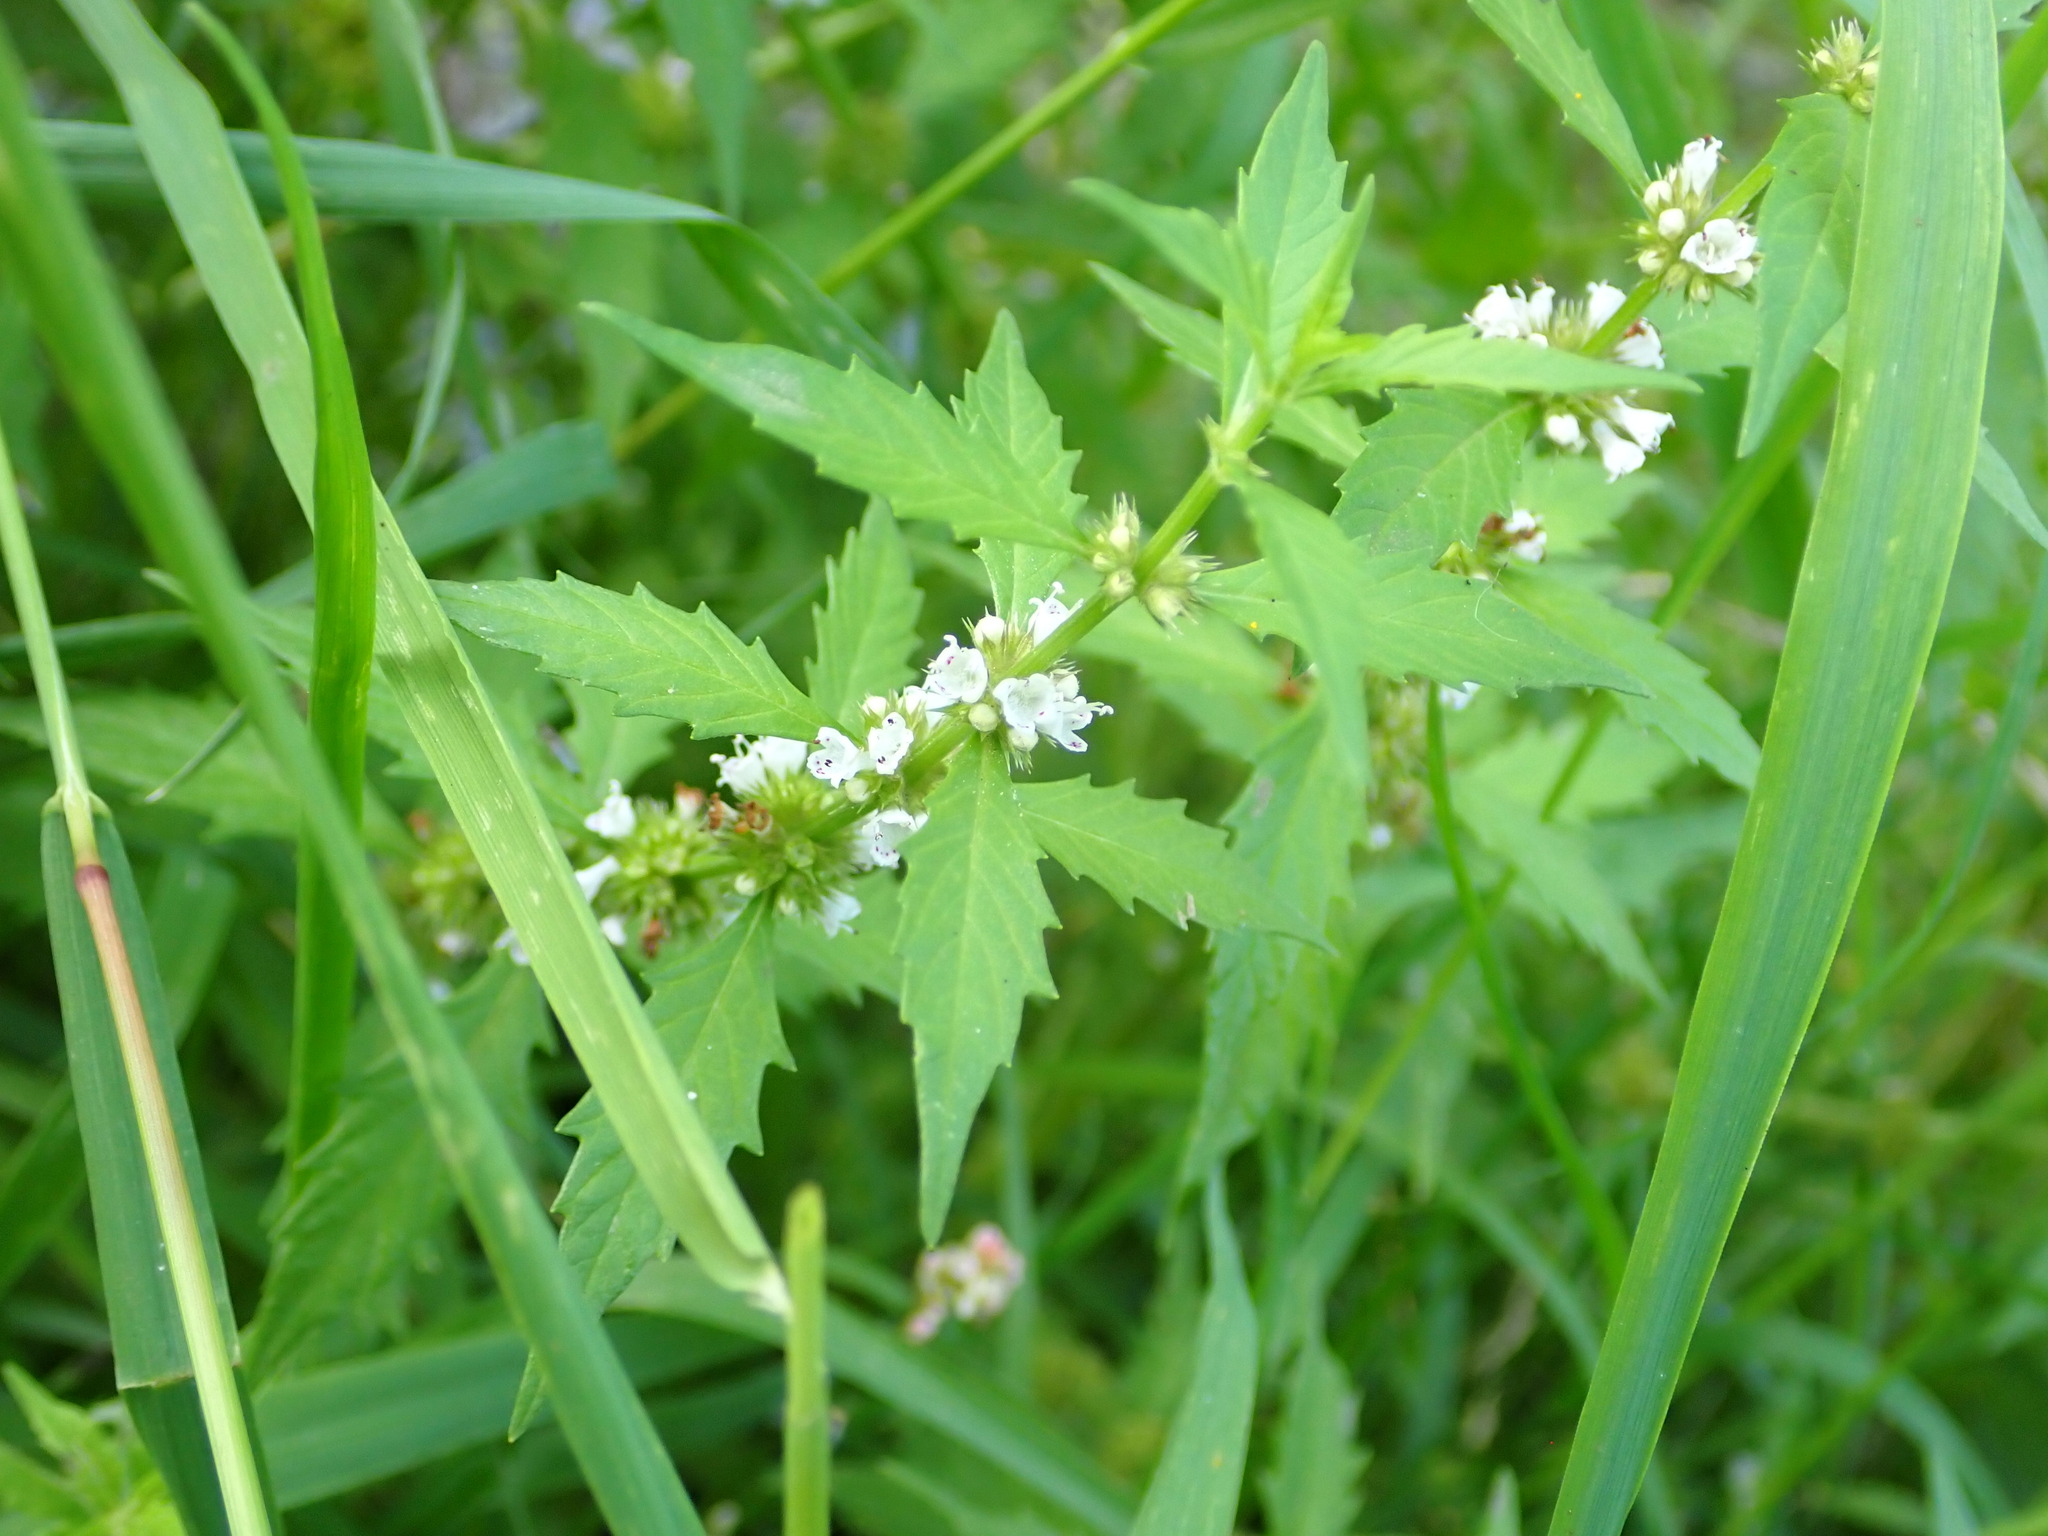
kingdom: Plantae
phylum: Tracheophyta
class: Magnoliopsida
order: Lamiales
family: Lamiaceae
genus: Lycopus
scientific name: Lycopus europaeus
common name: European bugleweed
